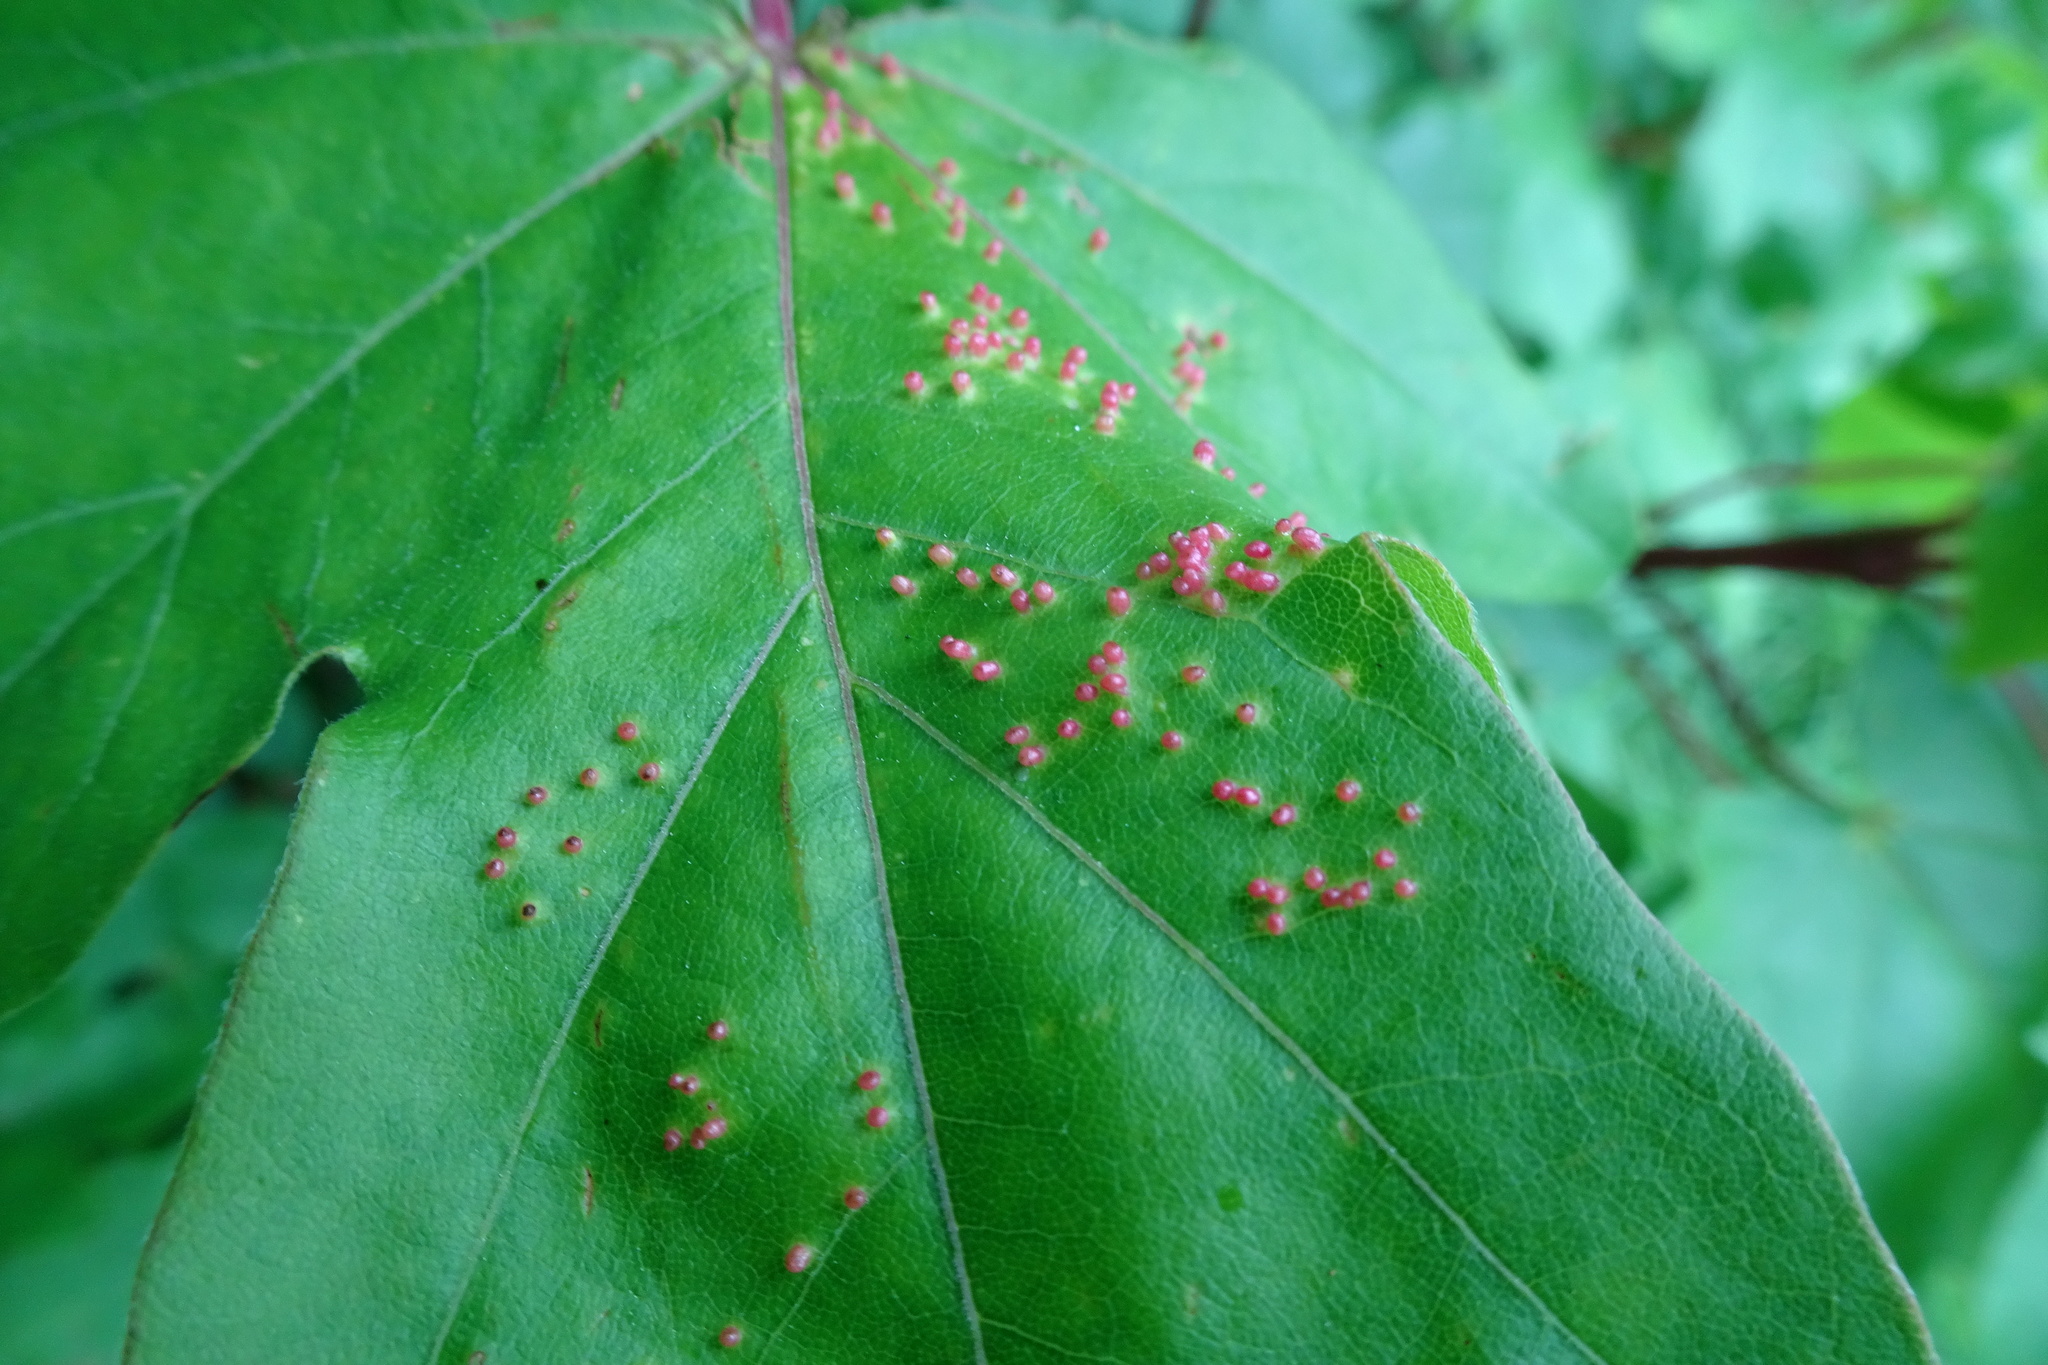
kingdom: Animalia
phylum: Arthropoda
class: Arachnida
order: Trombidiformes
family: Eriophyidae
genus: Aceria
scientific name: Aceria myriadeum
